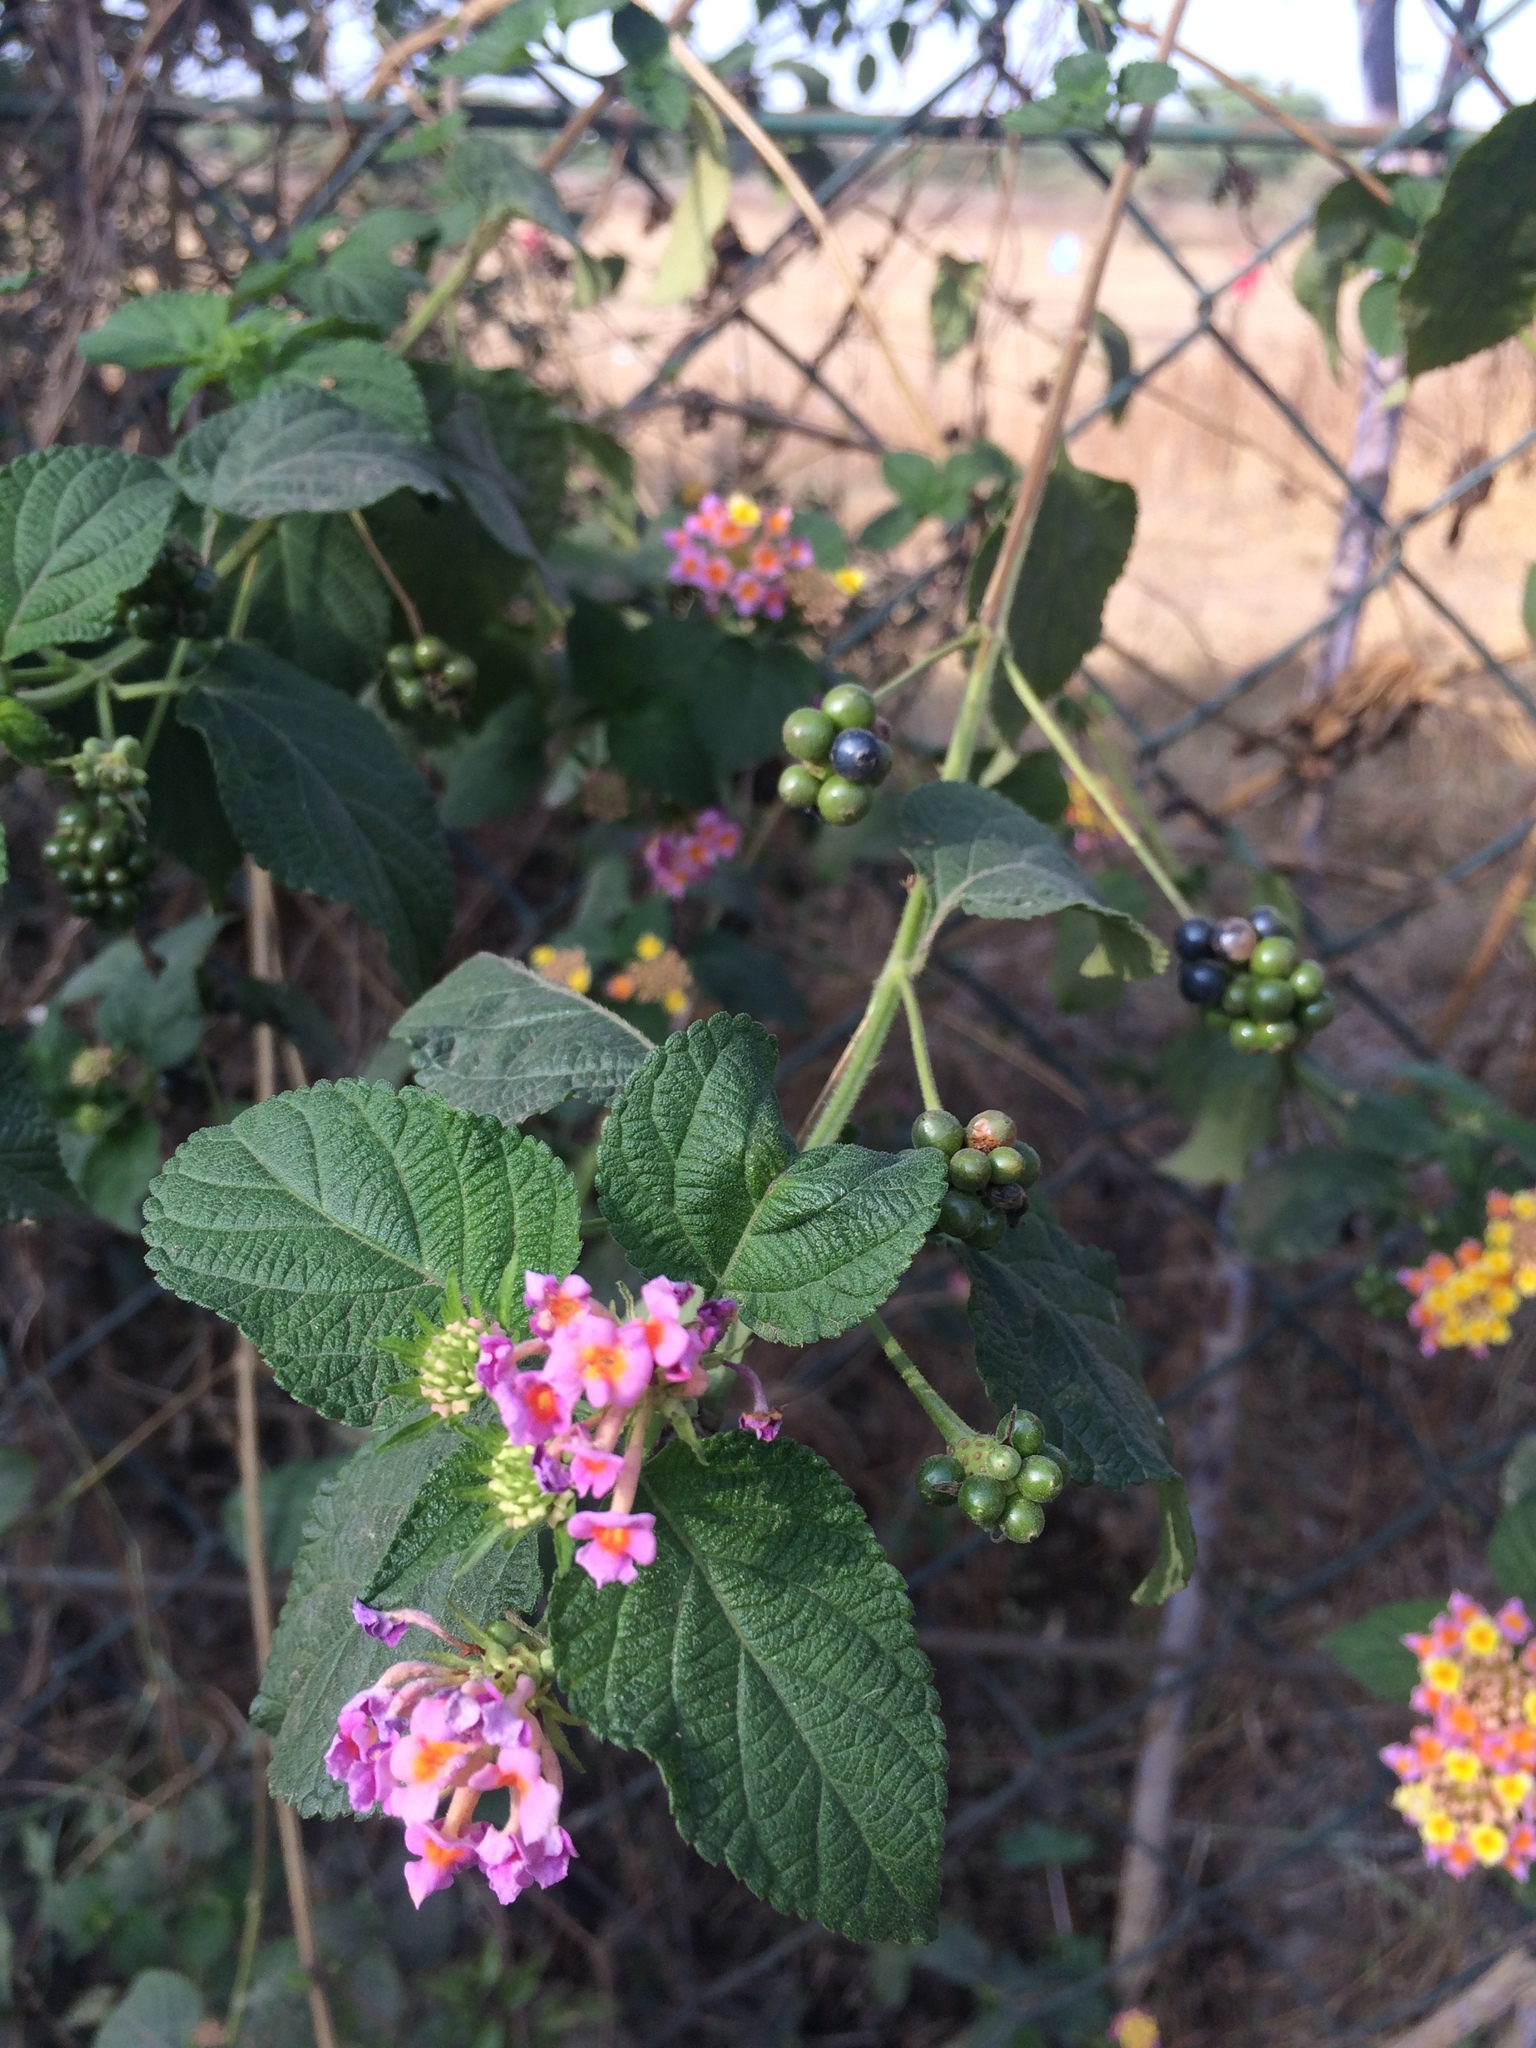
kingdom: Plantae
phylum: Tracheophyta
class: Magnoliopsida
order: Lamiales
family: Verbenaceae
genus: Lantana
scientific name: Lantana camara
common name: Lantana
